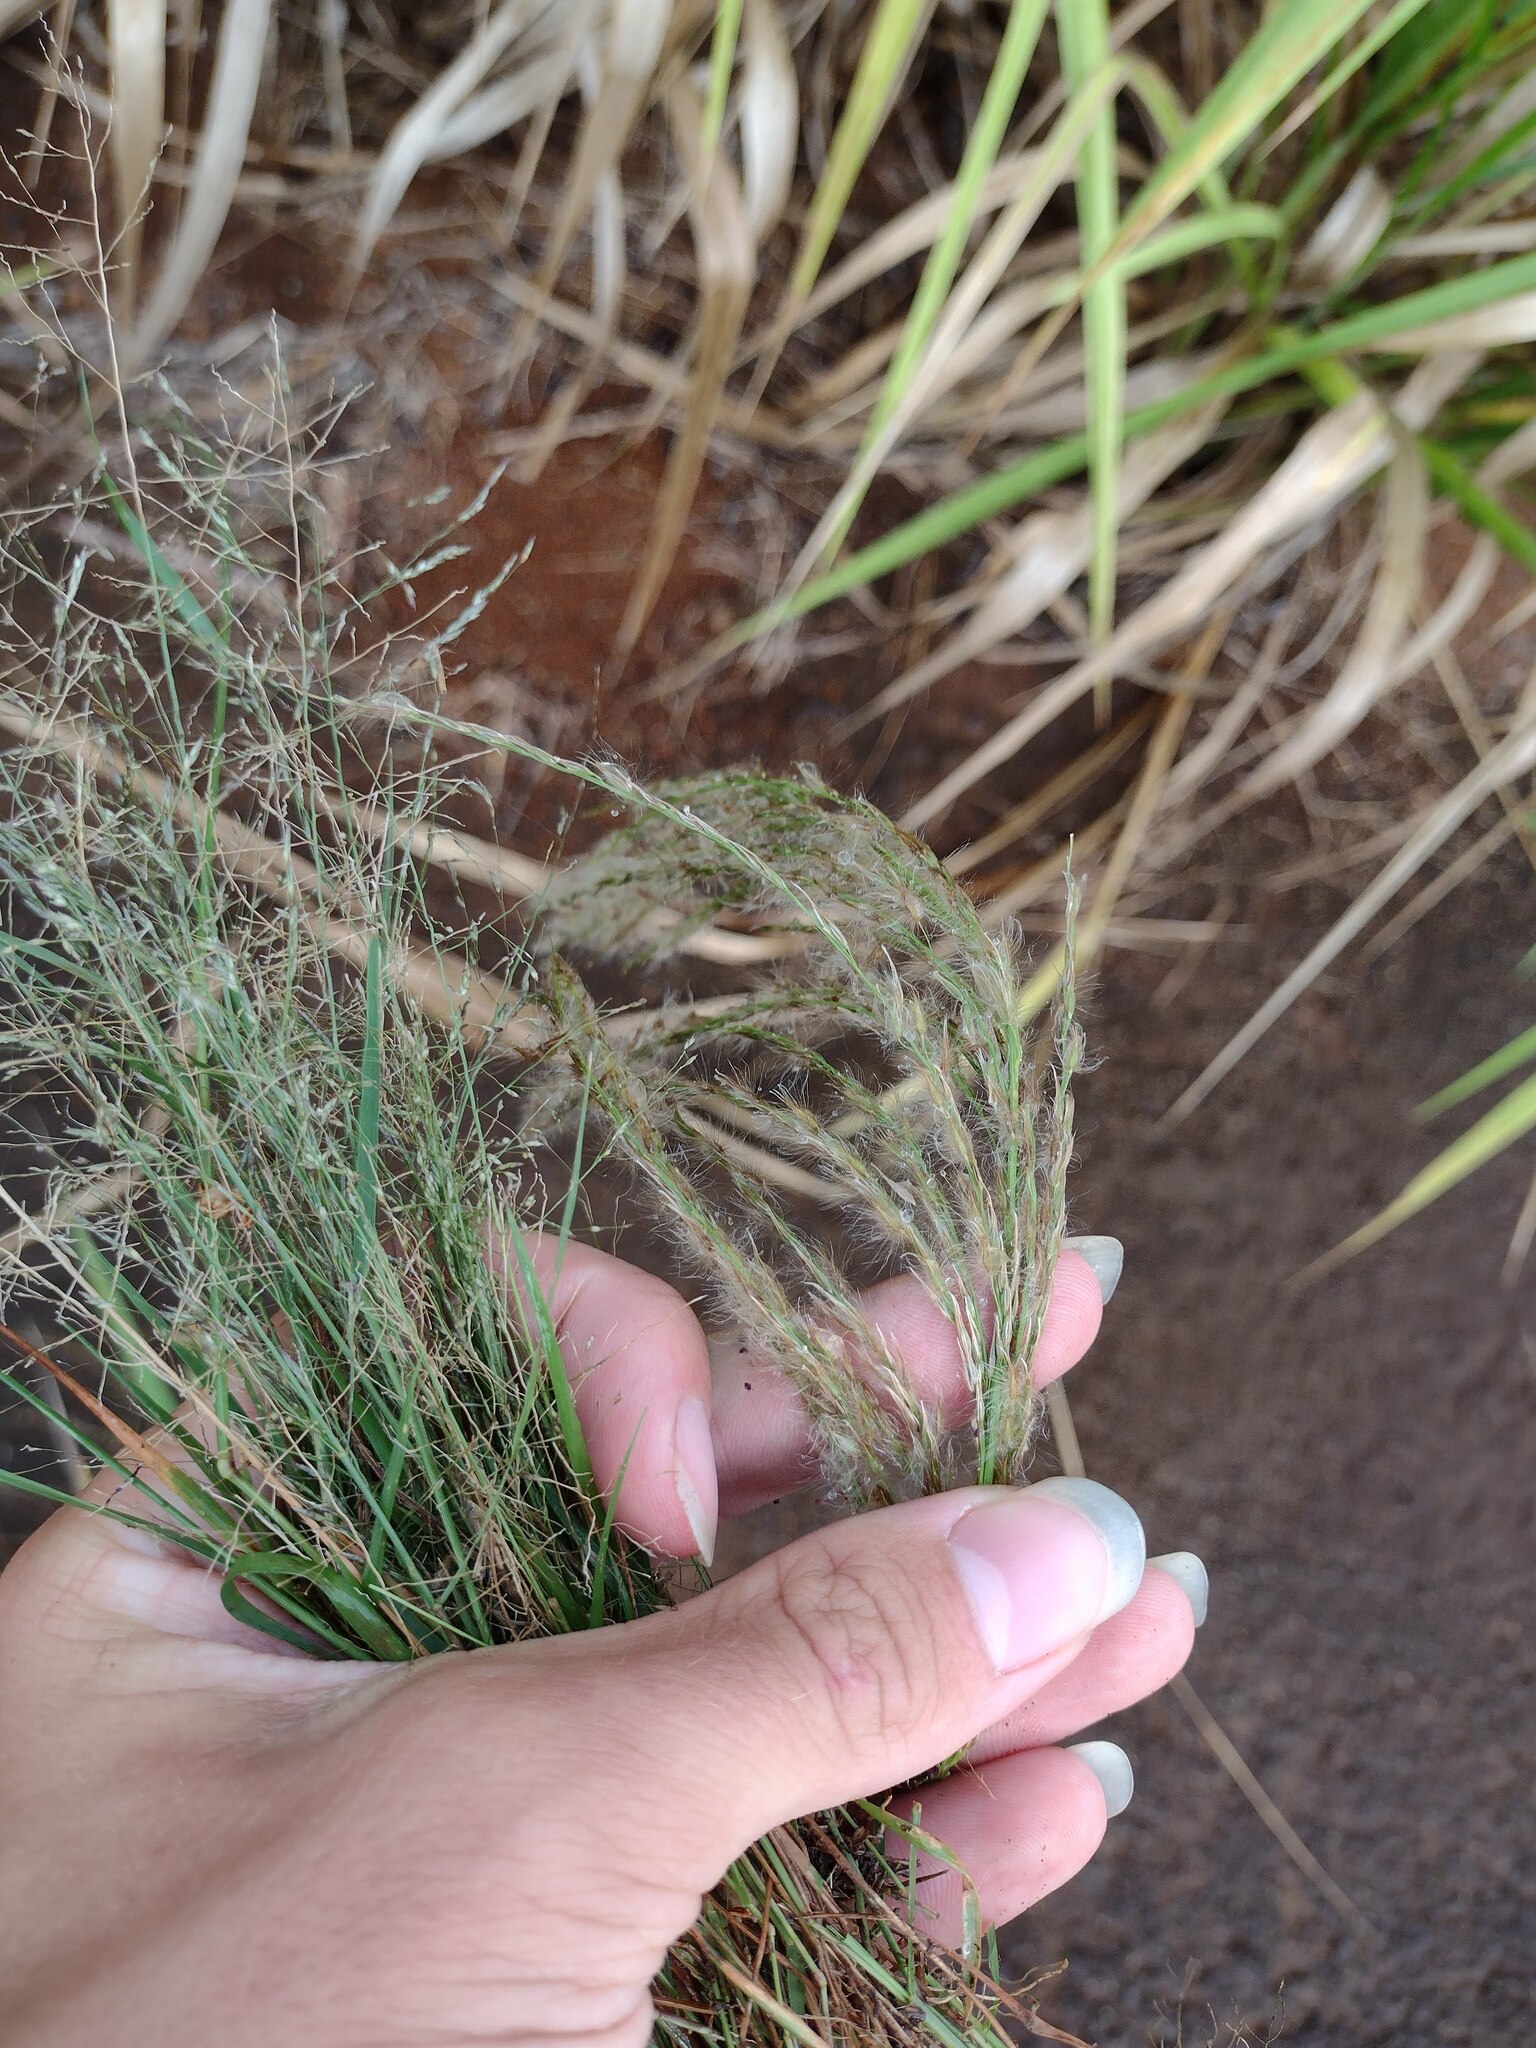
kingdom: Plantae
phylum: Tracheophyta
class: Liliopsida
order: Poales
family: Poaceae
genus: Digitaria
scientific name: Digitaria insularis
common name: Sourgrass
